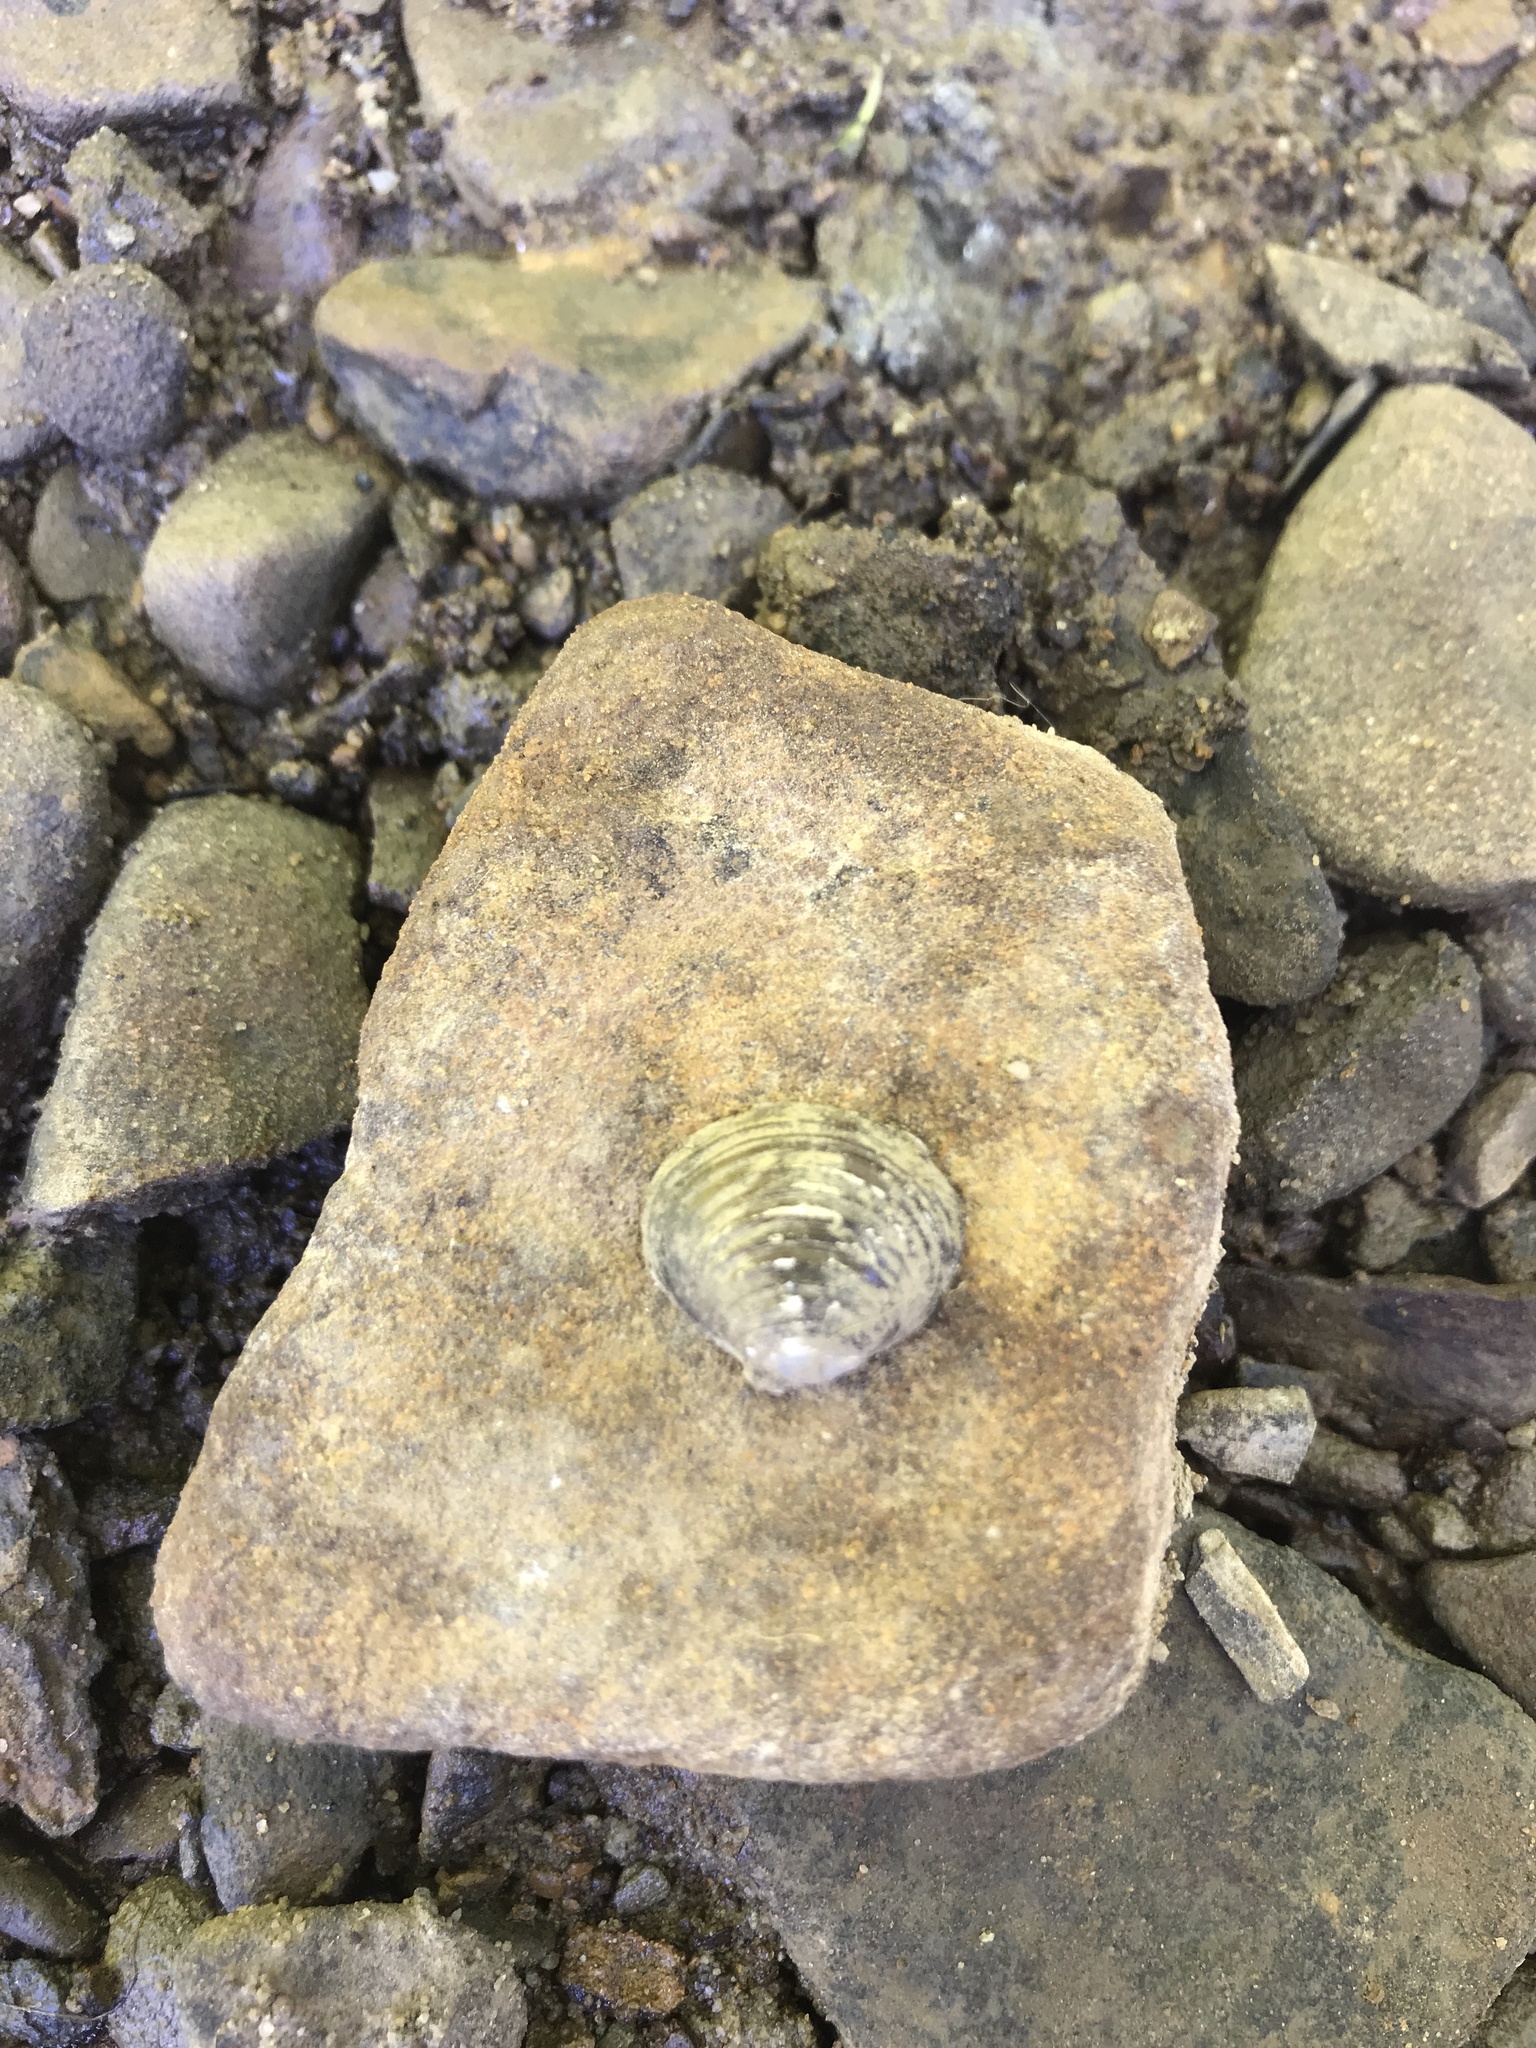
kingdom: Animalia
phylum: Mollusca
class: Bivalvia
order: Venerida
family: Cyrenidae
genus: Corbicula
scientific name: Corbicula fluminea
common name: Asian clam
